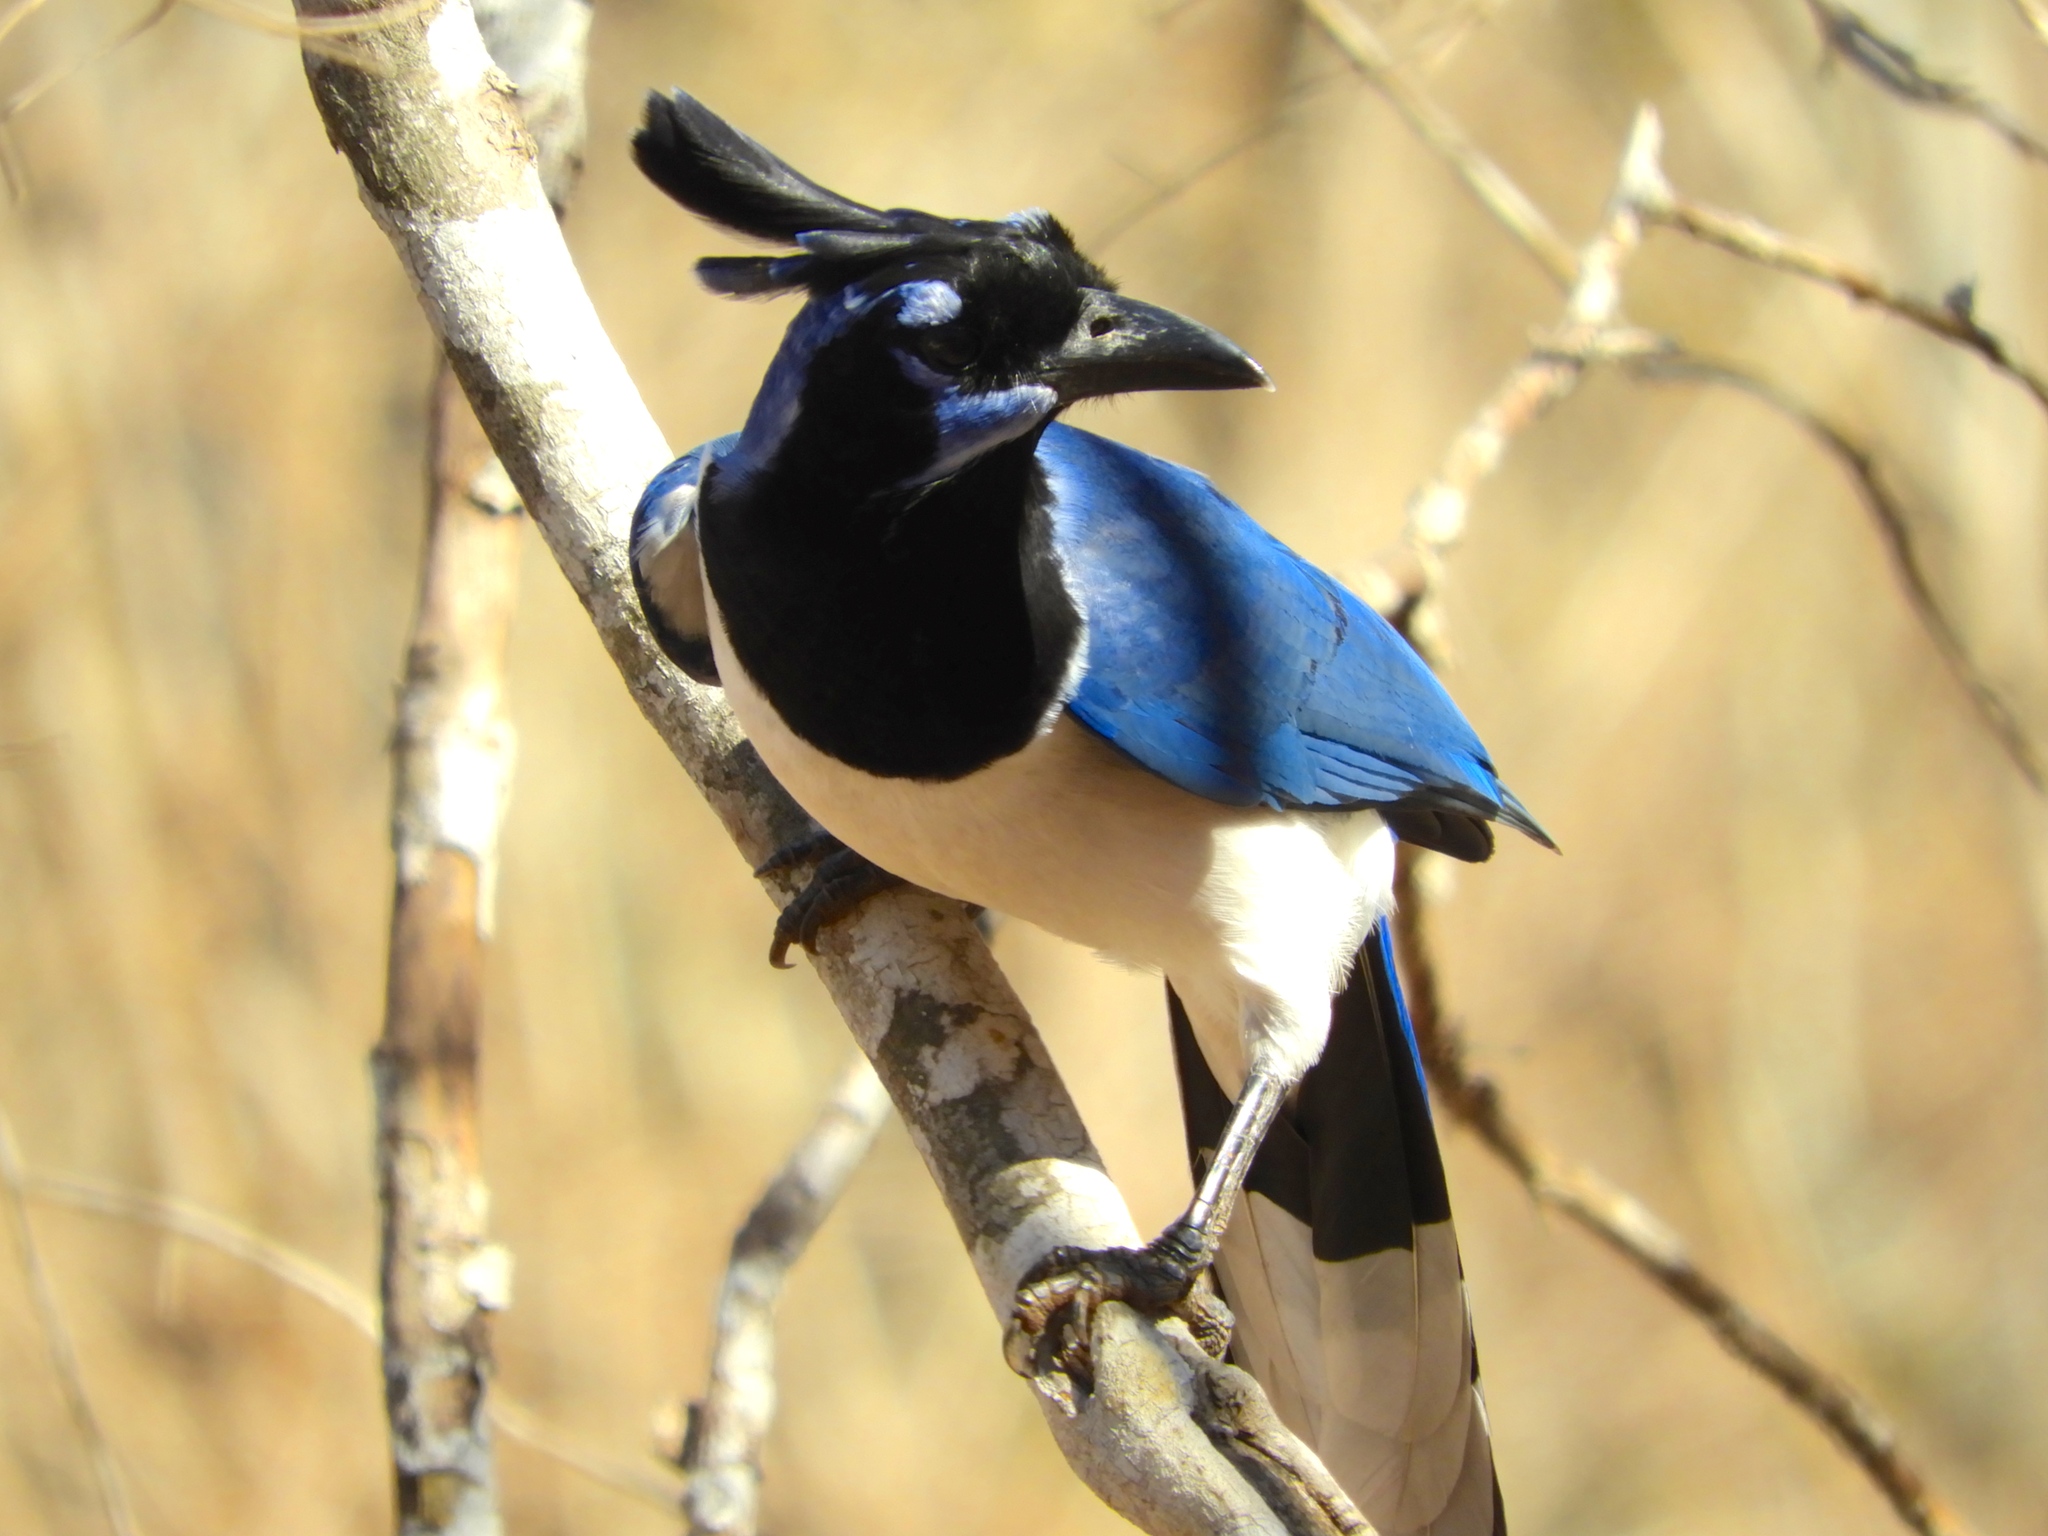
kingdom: Animalia
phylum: Chordata
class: Aves
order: Passeriformes
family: Corvidae
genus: Calocitta
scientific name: Calocitta colliei
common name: Black-throated magpie-jay
